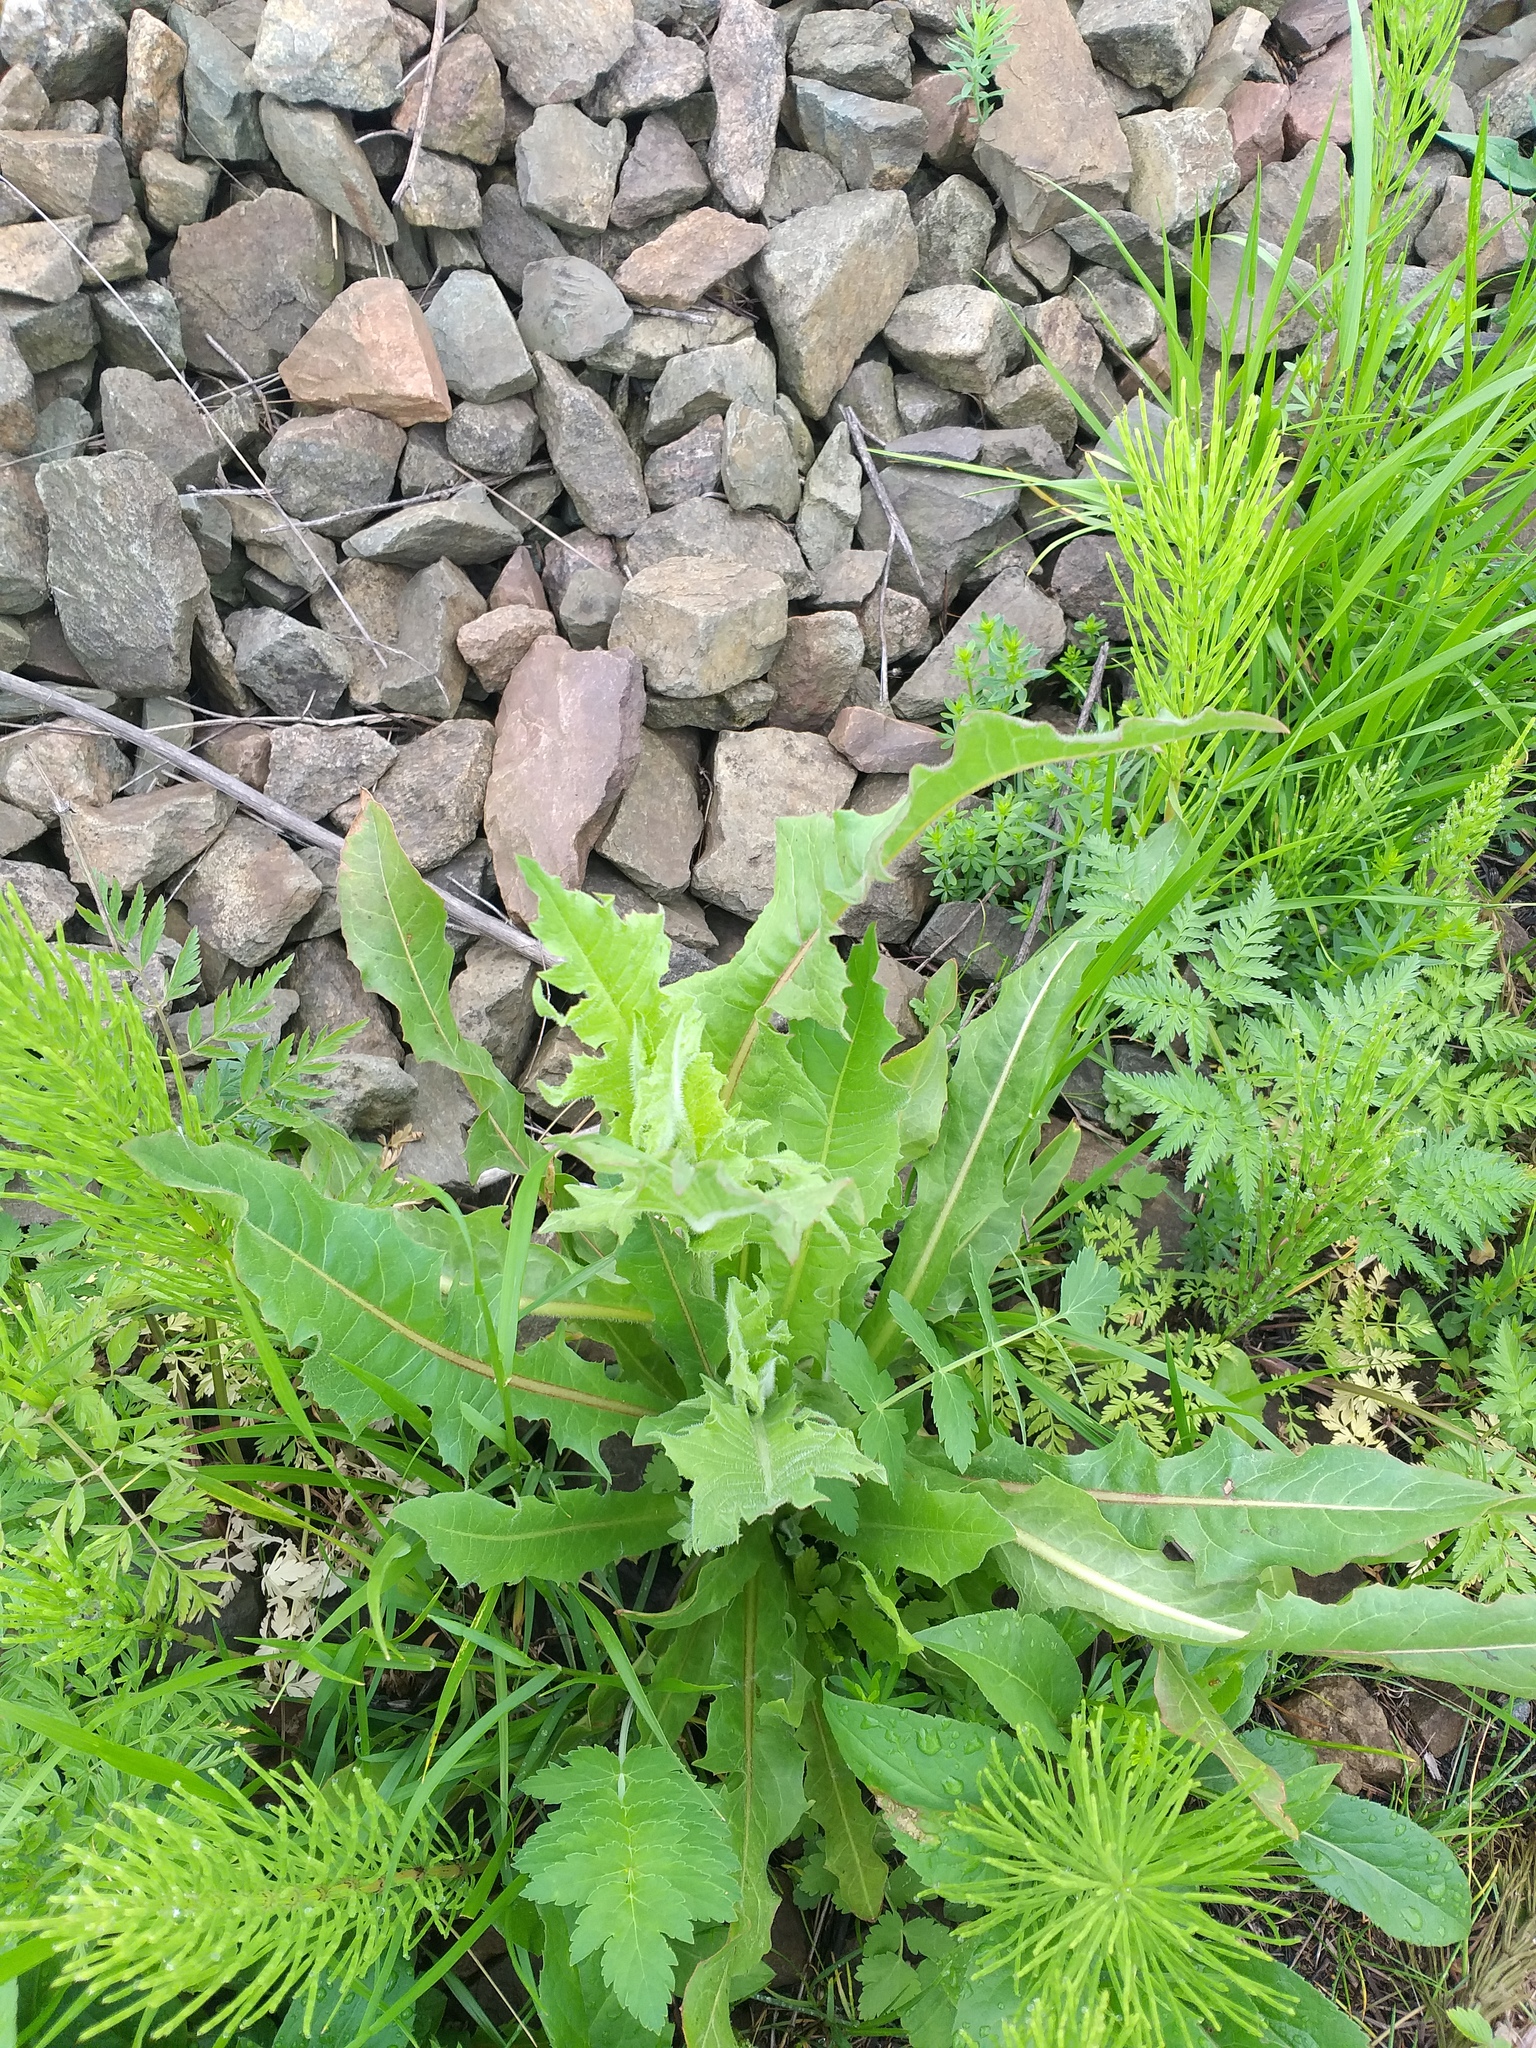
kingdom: Plantae
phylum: Tracheophyta
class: Magnoliopsida
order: Asterales
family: Asteraceae
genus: Cichorium
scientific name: Cichorium intybus
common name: Chicory
